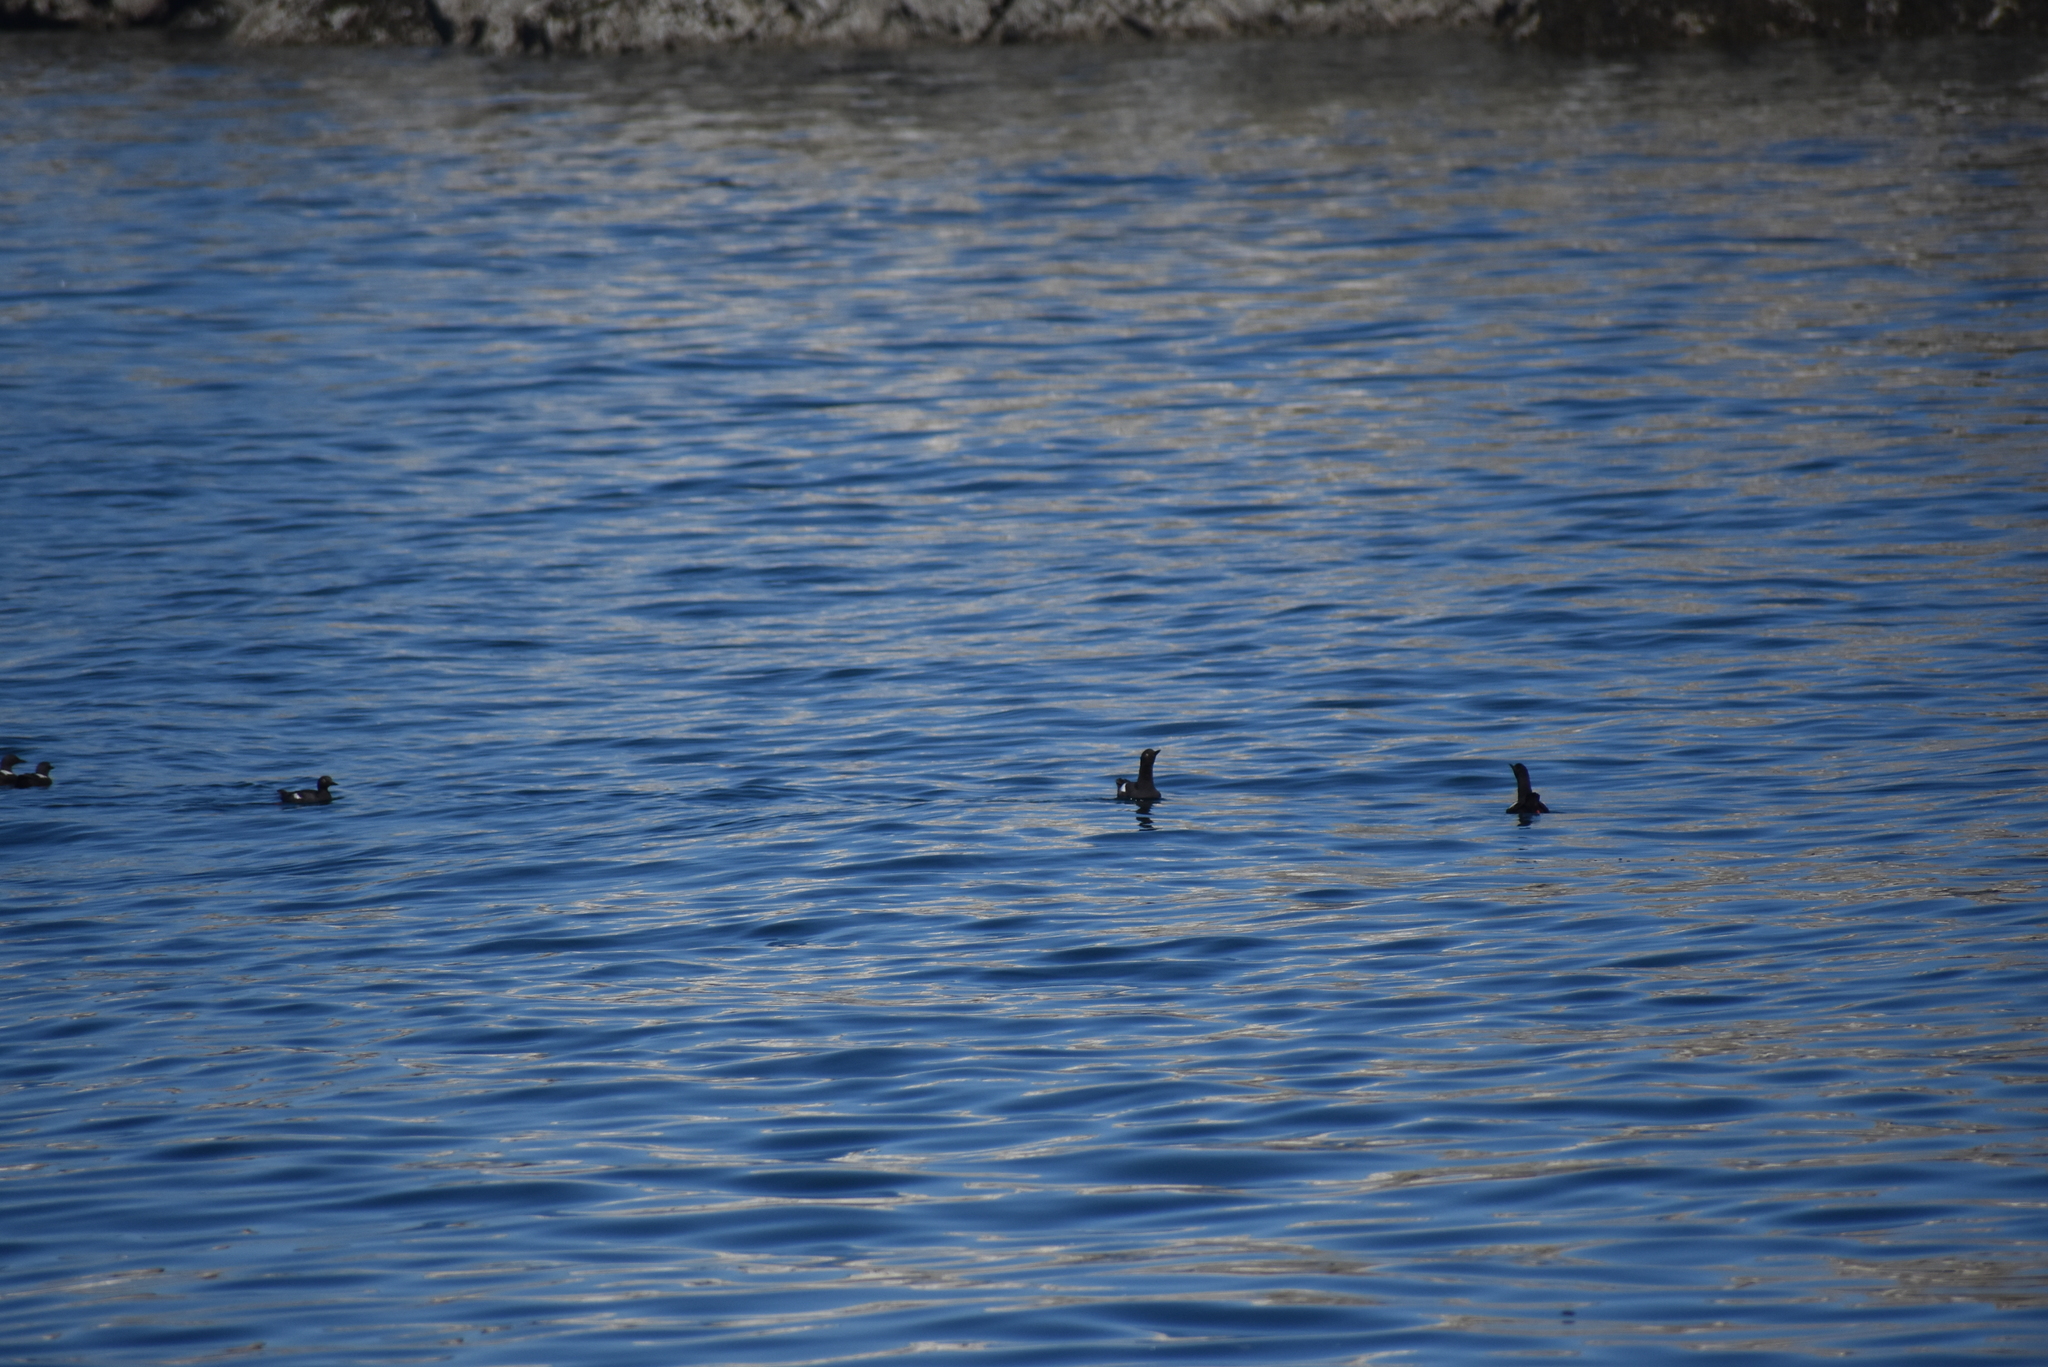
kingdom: Animalia
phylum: Chordata
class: Aves
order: Charadriiformes
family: Alcidae
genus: Cepphus
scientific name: Cepphus columba
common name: Pigeon guillemot
